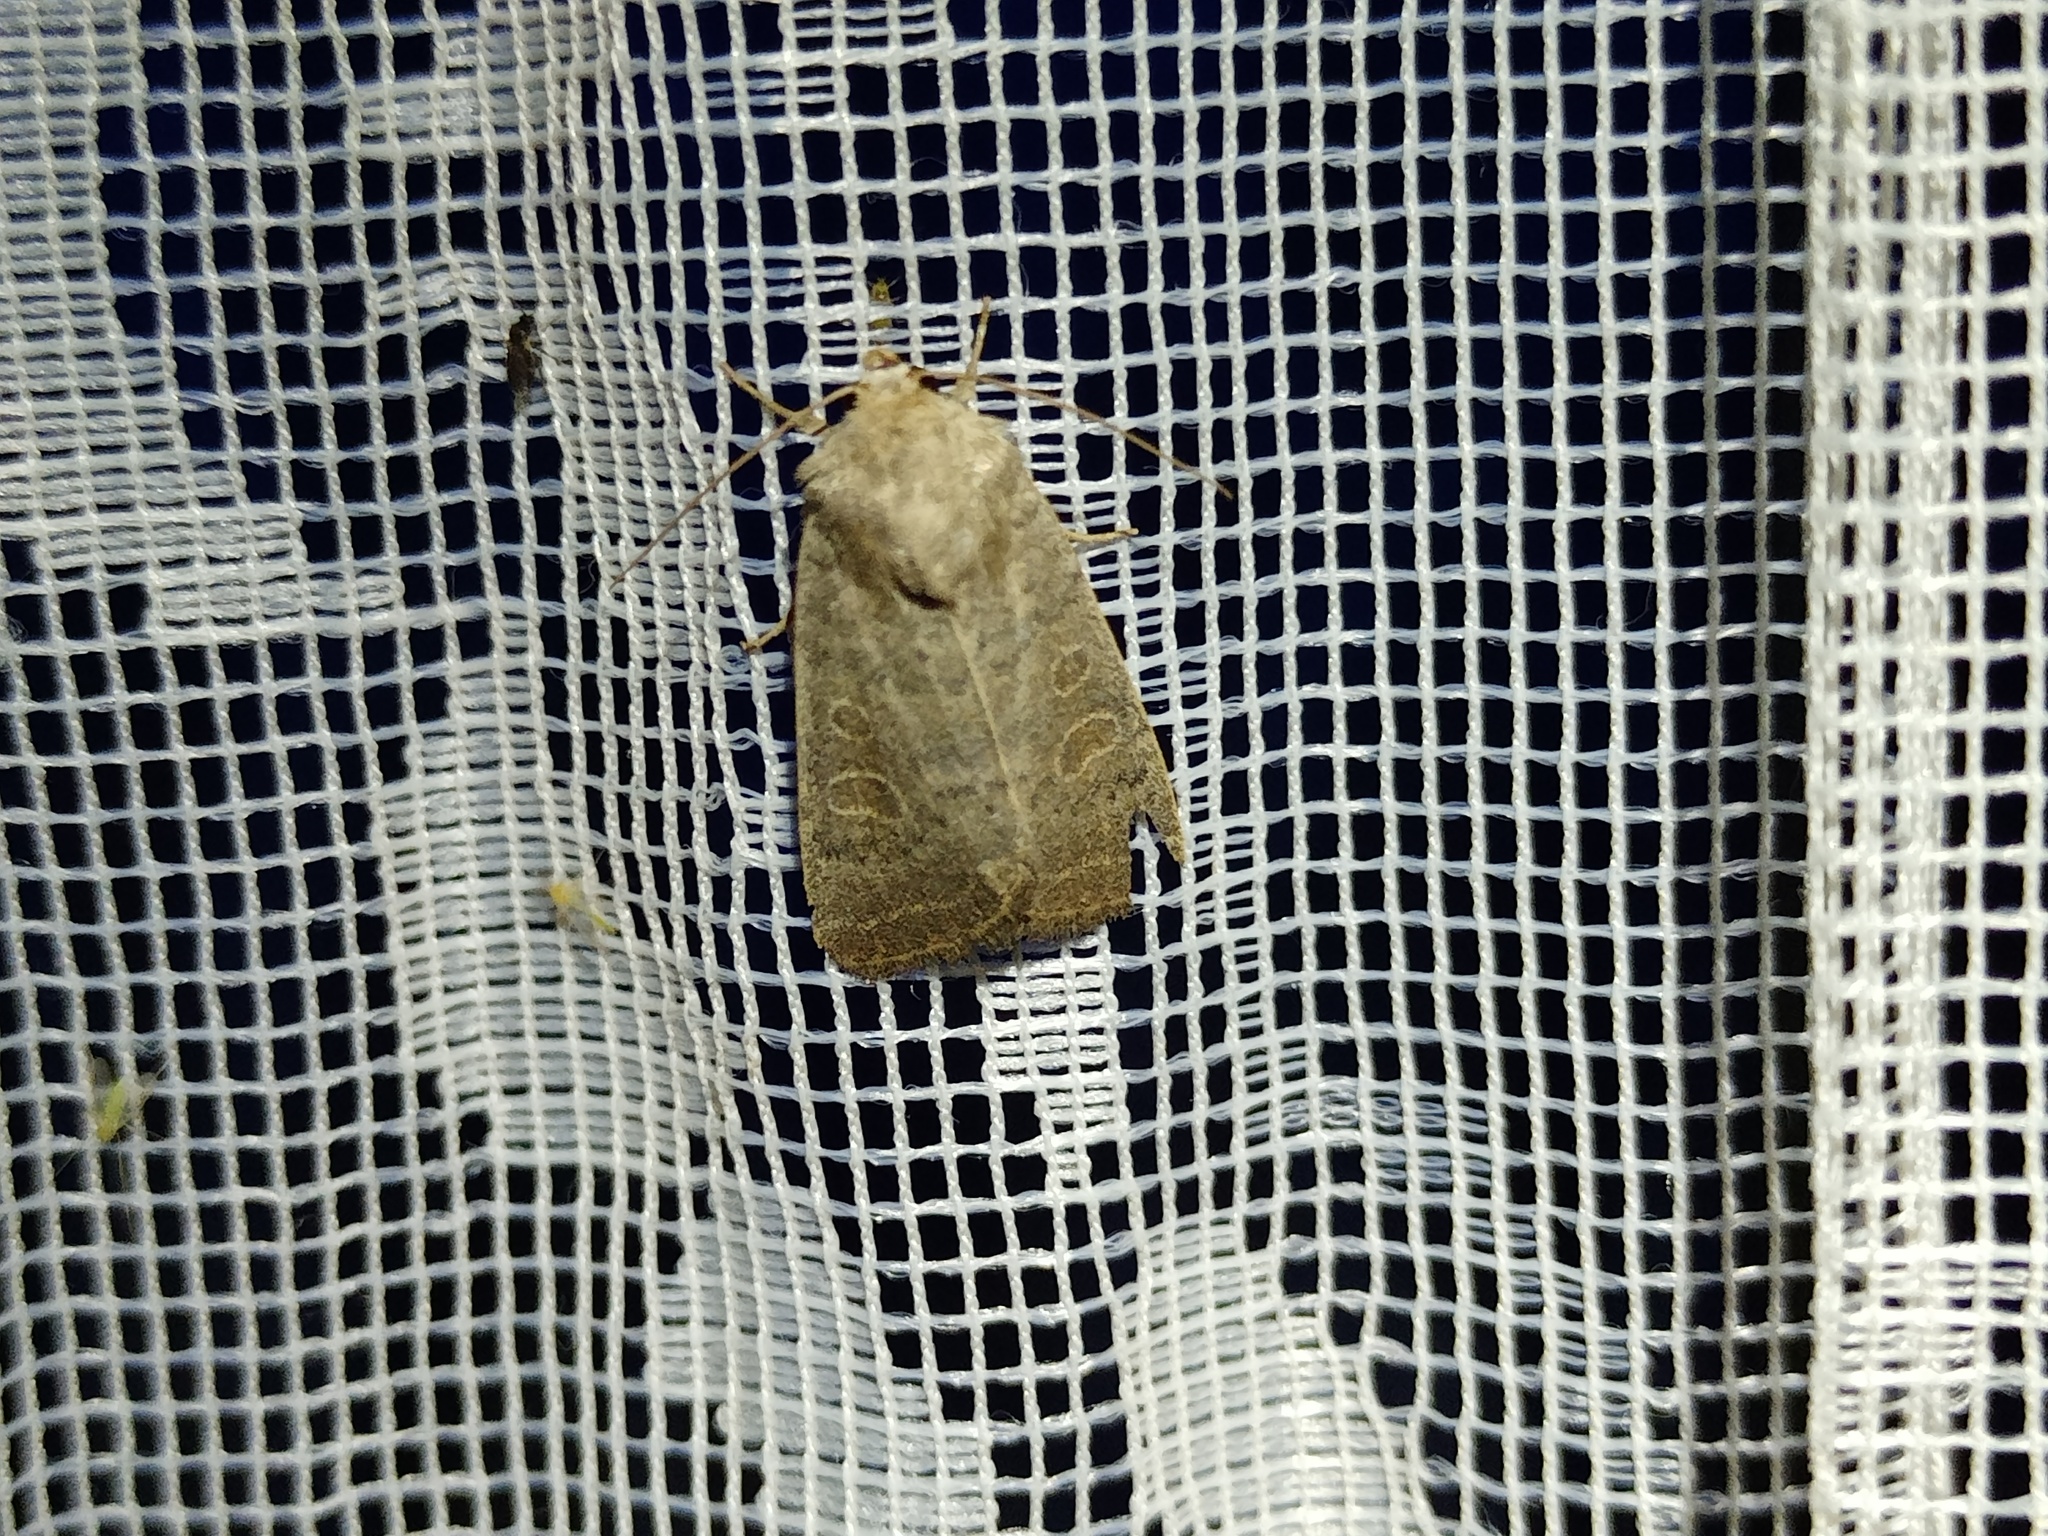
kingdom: Animalia
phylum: Arthropoda
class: Insecta
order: Lepidoptera
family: Noctuidae
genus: Hoplodrina
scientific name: Hoplodrina ambigua
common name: Vine's rustic
